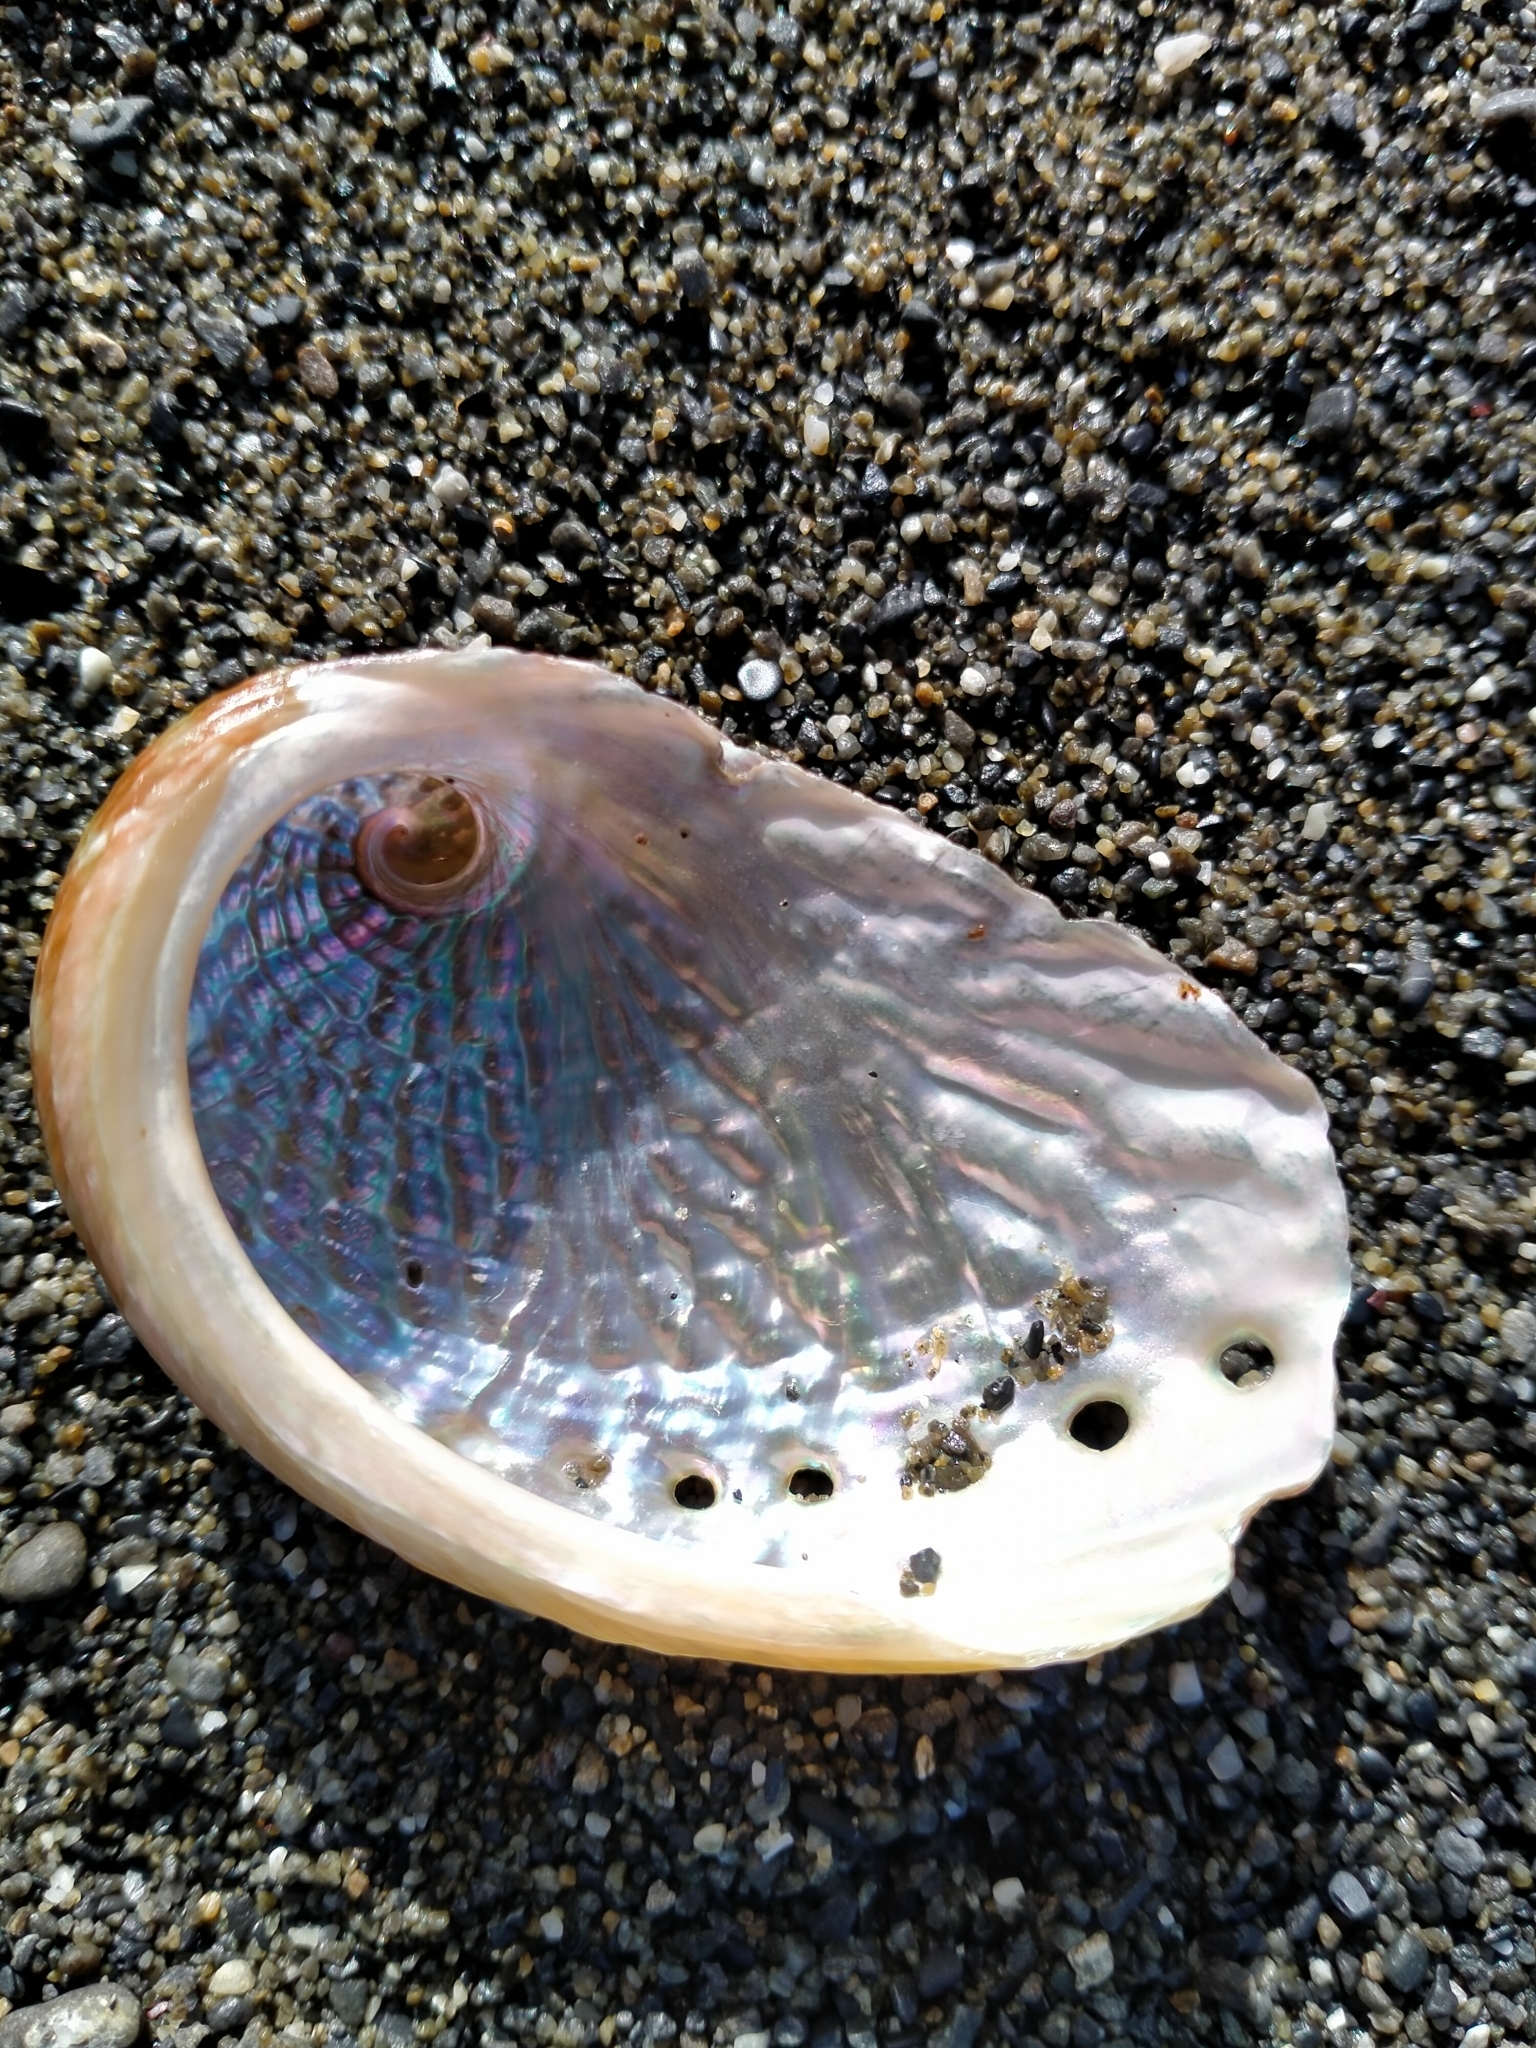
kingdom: Animalia
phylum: Mollusca
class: Gastropoda
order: Lepetellida
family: Haliotidae
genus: Haliotis
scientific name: Haliotis australis
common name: Silver abalone
